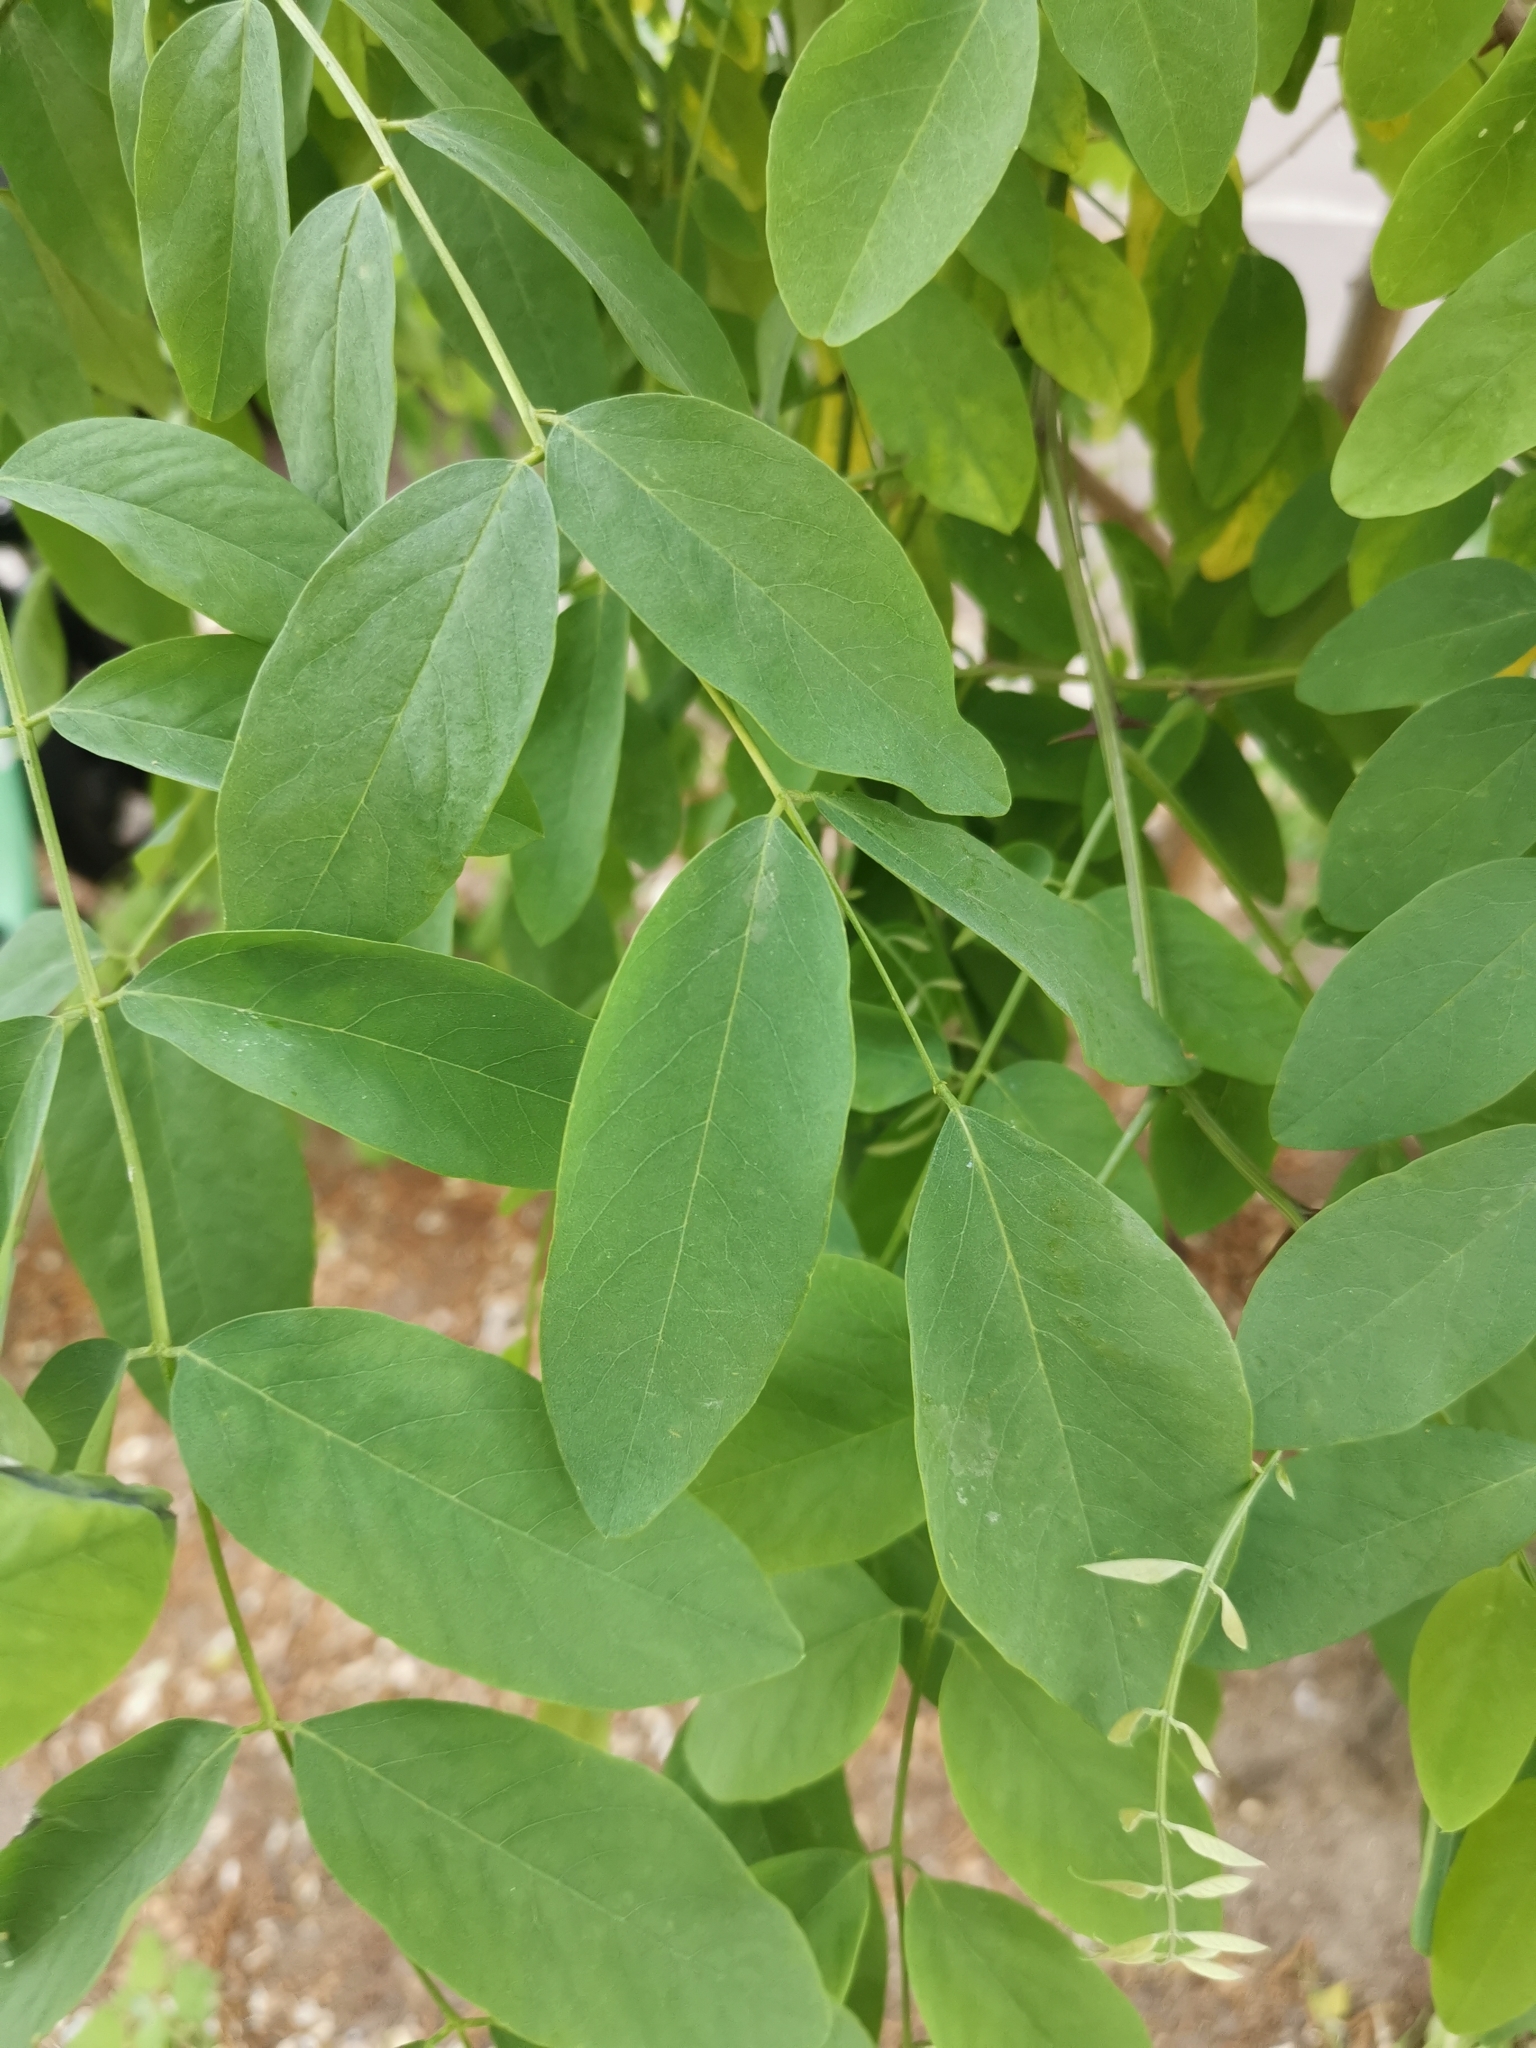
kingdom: Plantae
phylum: Tracheophyta
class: Magnoliopsida
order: Fabales
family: Fabaceae
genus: Robinia
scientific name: Robinia pseudoacacia
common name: Black locust
